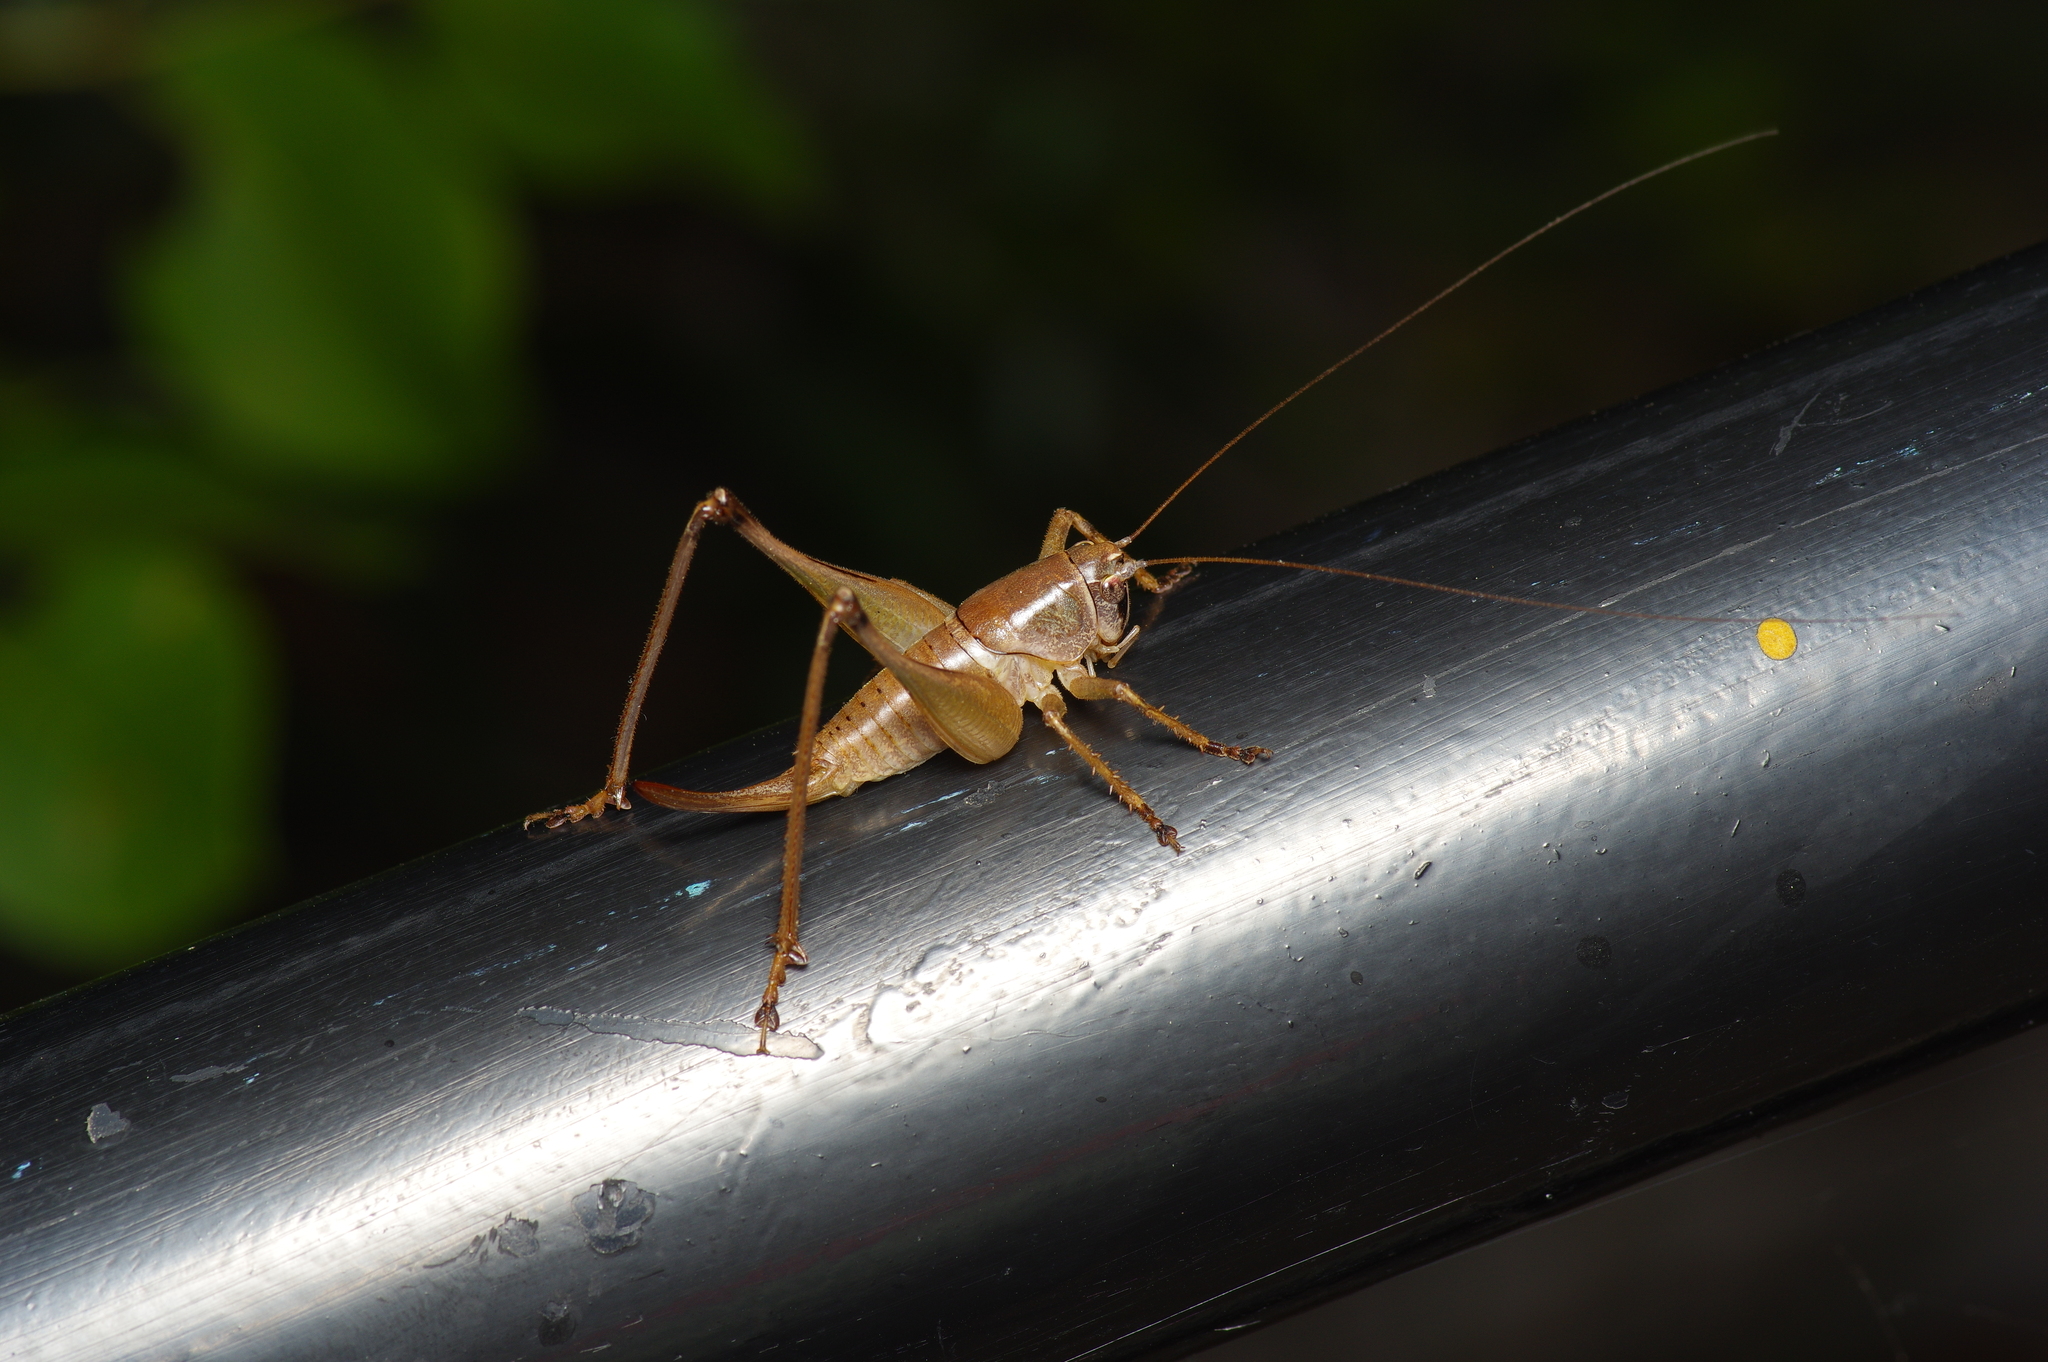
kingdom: Animalia
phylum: Arthropoda
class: Insecta
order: Orthoptera
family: Tettigoniidae
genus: Pediodectes
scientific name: Pediodectes bruneri
